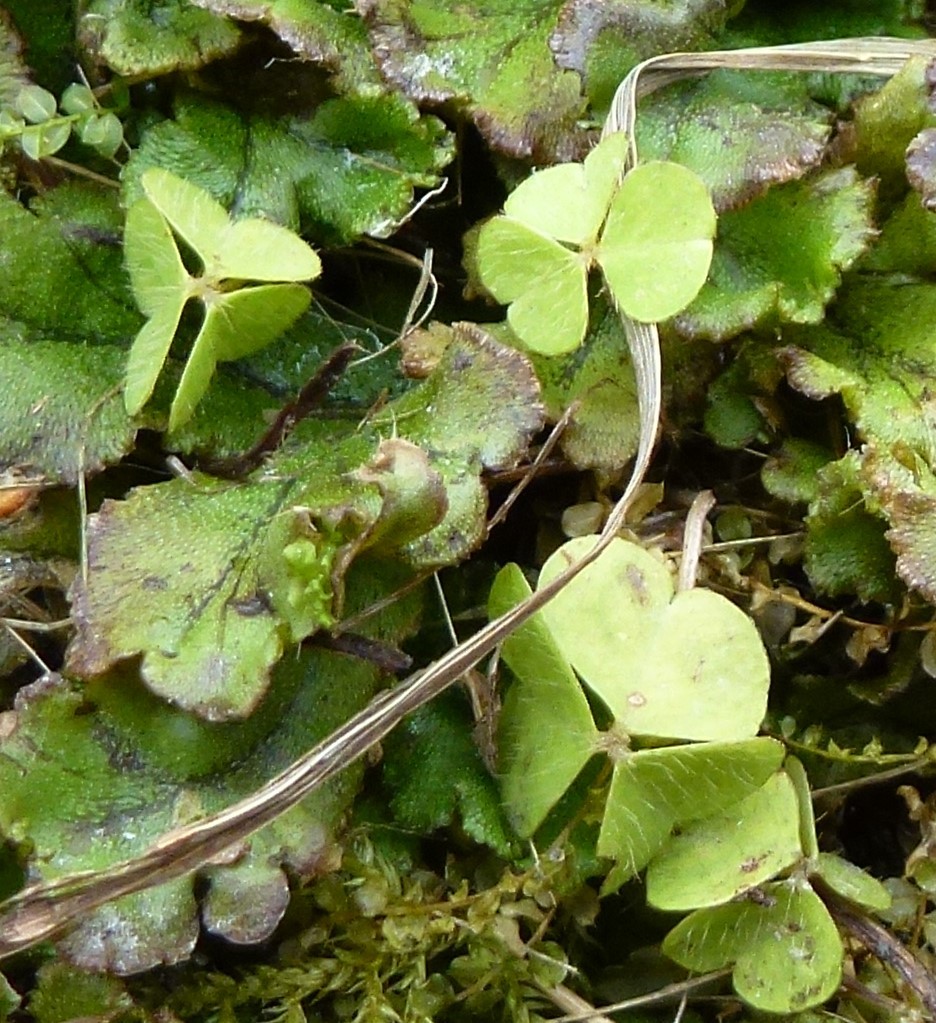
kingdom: Plantae
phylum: Tracheophyta
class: Magnoliopsida
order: Oxalidales
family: Oxalidaceae
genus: Oxalis
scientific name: Oxalis acetosella
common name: Wood-sorrel
